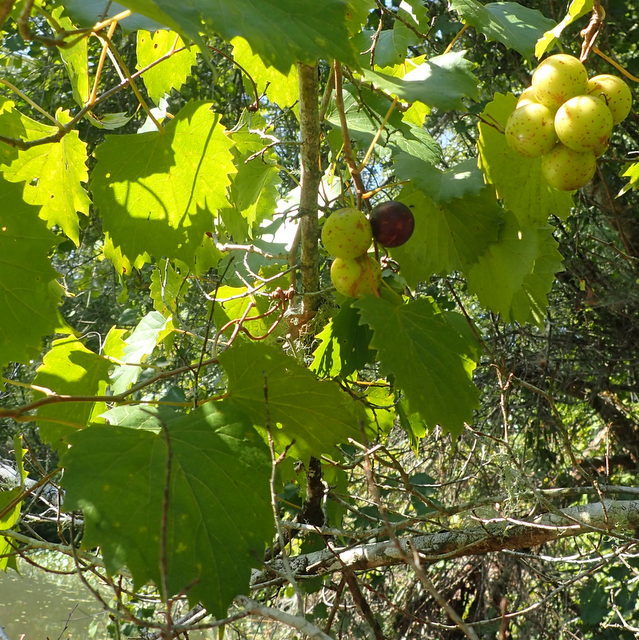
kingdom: Plantae
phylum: Tracheophyta
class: Magnoliopsida
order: Vitales
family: Vitaceae
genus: Vitis
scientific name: Vitis rotundifolia
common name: Muscadine grape
